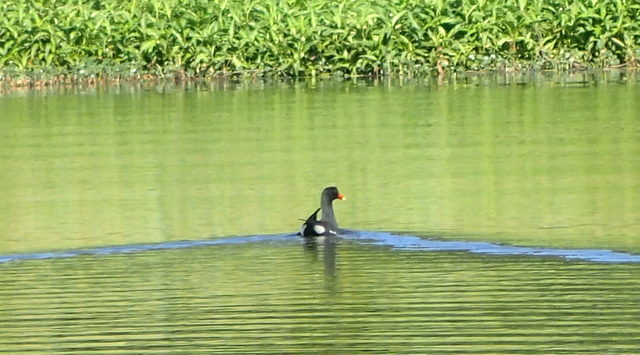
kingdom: Animalia
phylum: Chordata
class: Aves
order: Gruiformes
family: Rallidae
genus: Gallinula
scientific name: Gallinula chloropus
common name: Common moorhen
